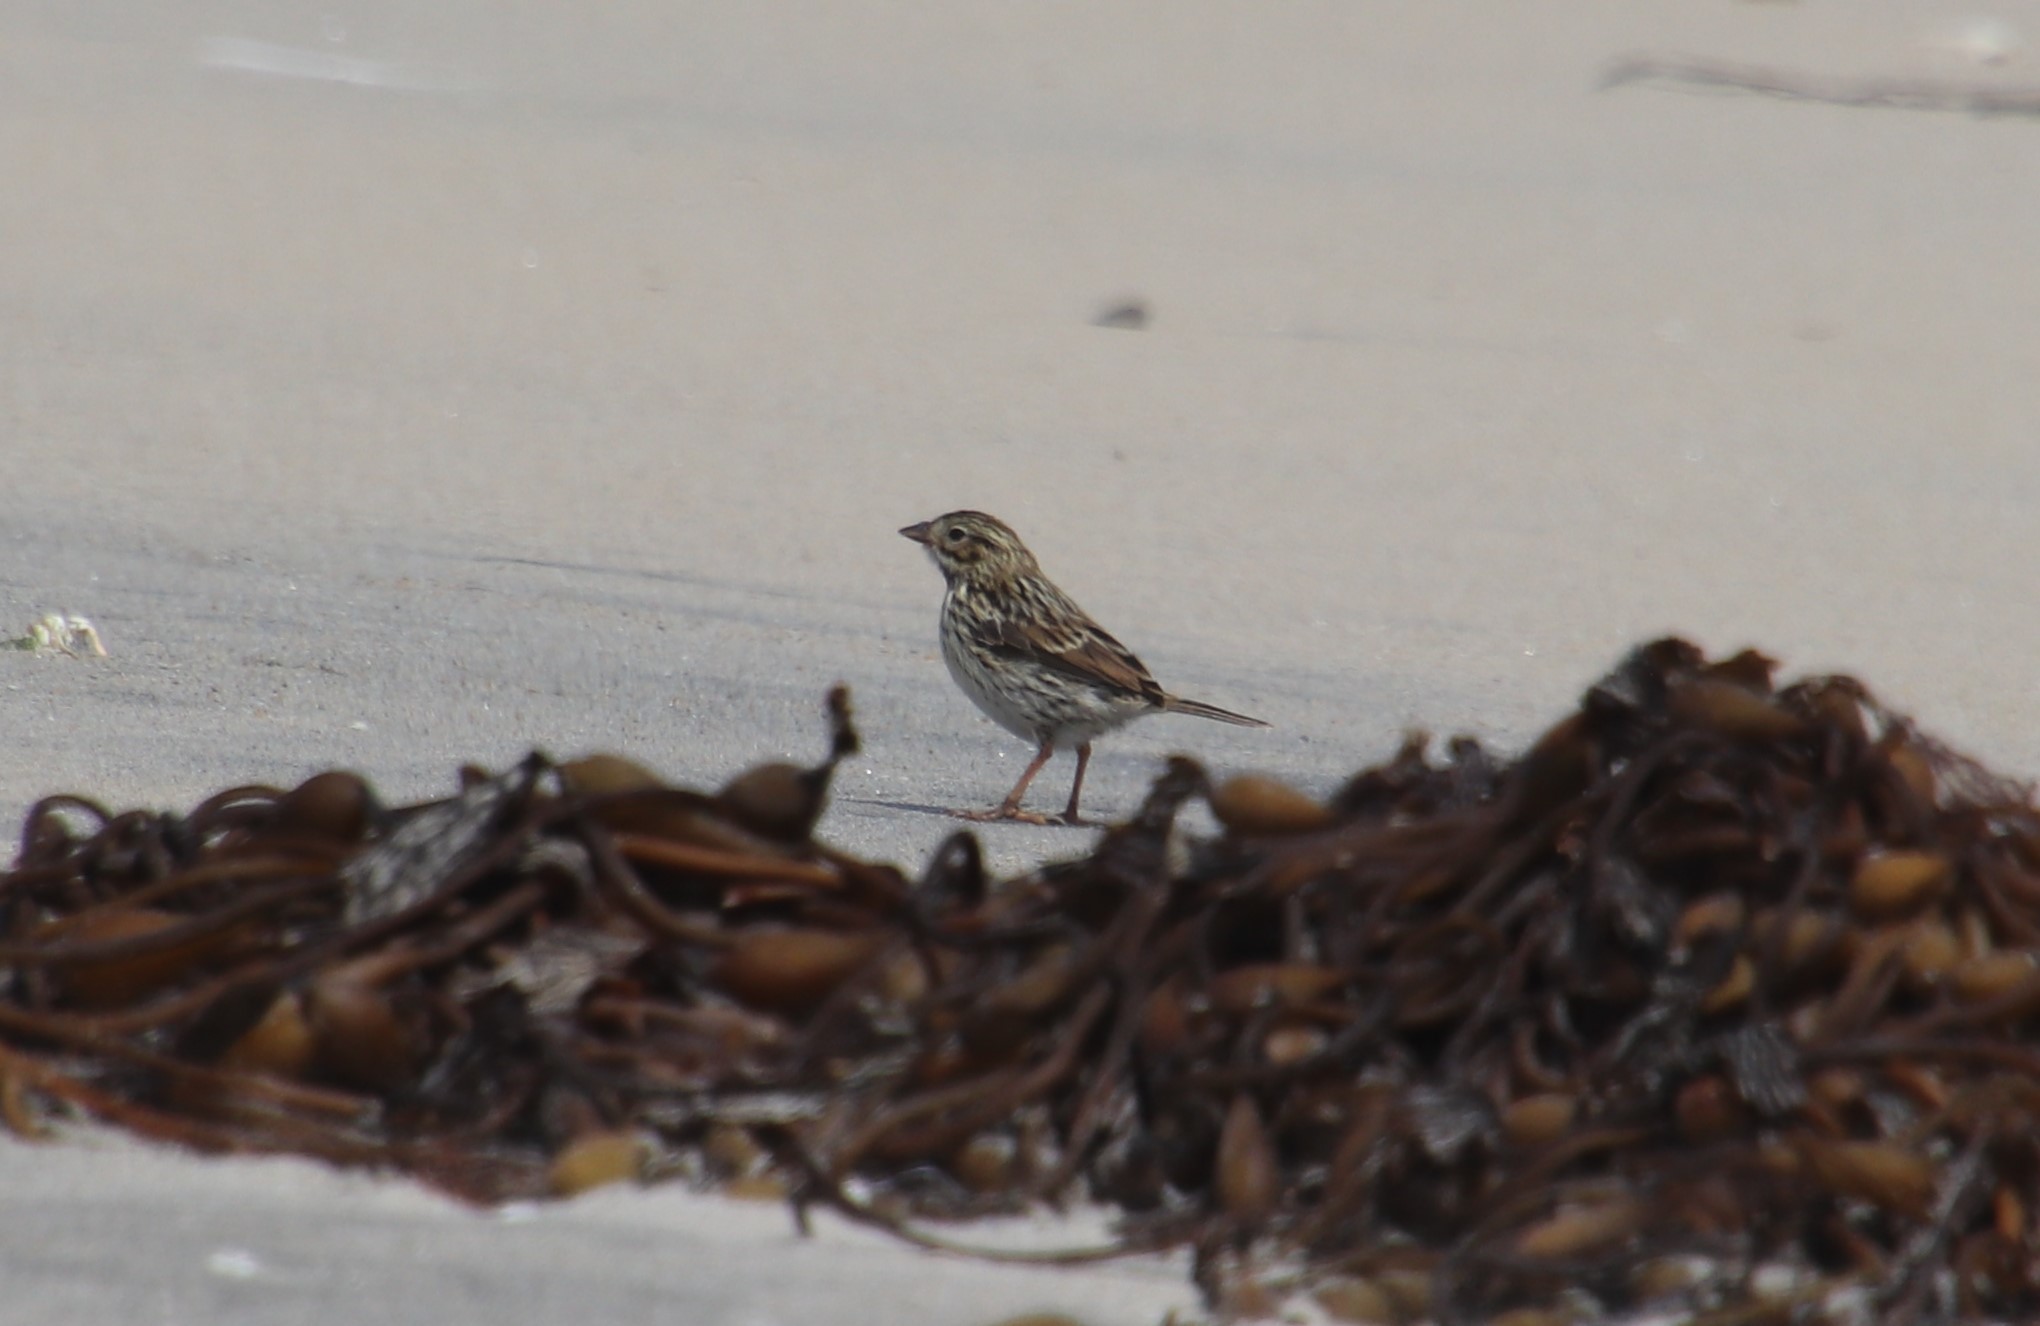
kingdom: Animalia
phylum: Chordata
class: Aves
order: Passeriformes
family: Passerellidae
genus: Passerculus
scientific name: Passerculus sandwichensis
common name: Savannah sparrow
